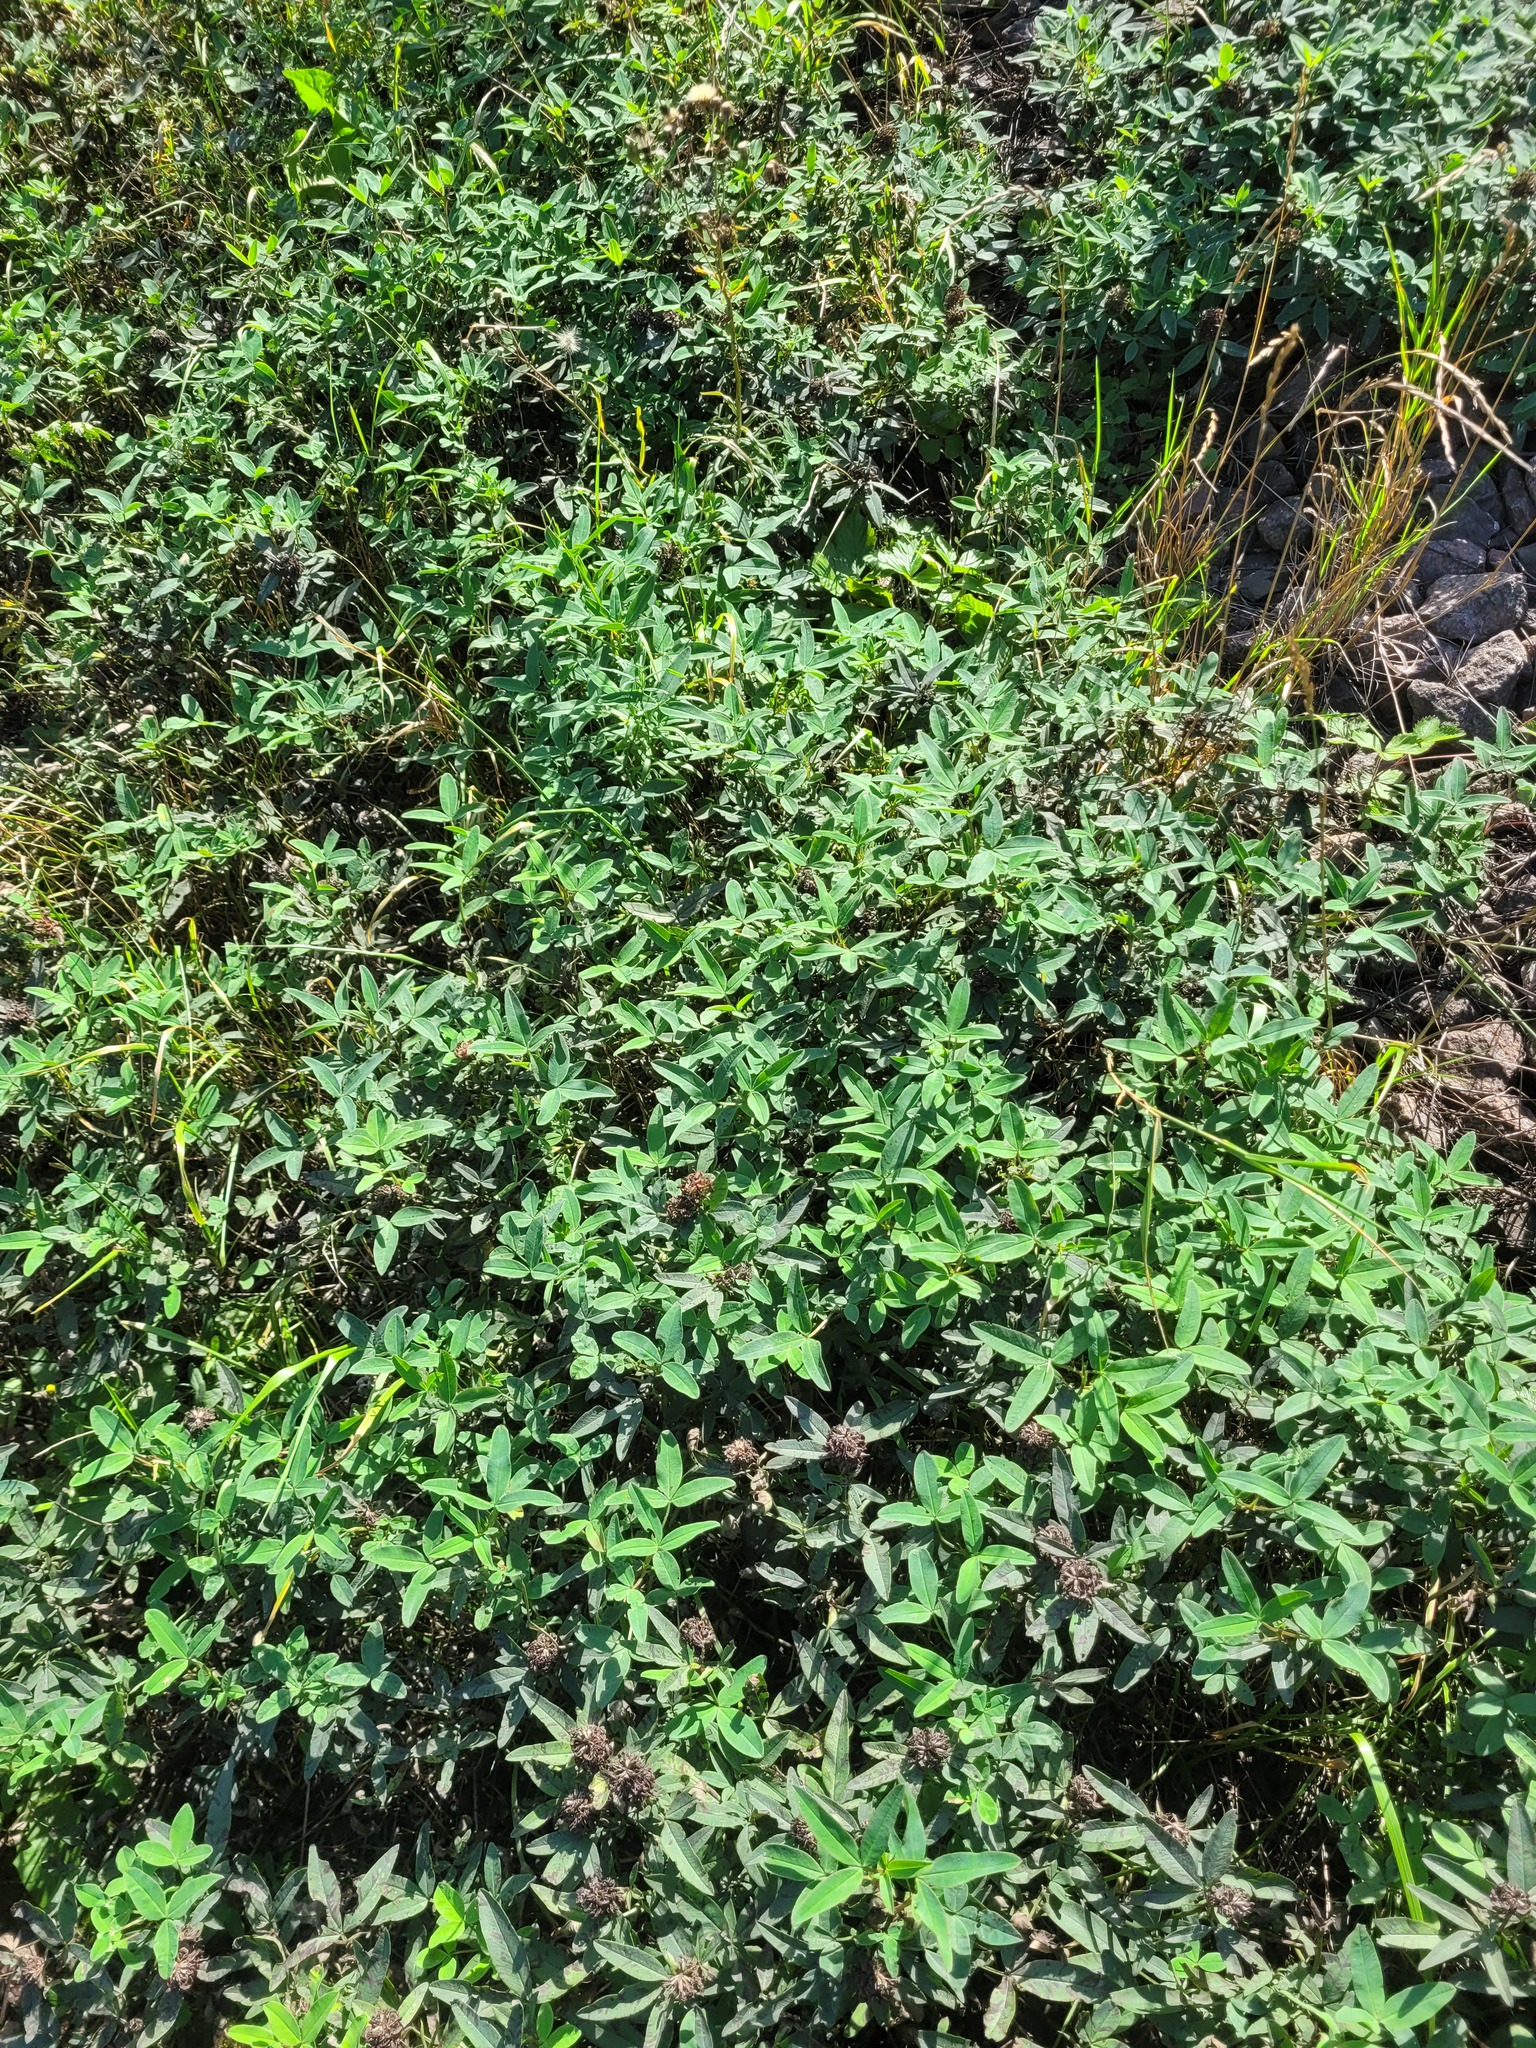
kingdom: Plantae
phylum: Tracheophyta
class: Magnoliopsida
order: Fabales
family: Fabaceae
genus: Trifolium
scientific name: Trifolium medium
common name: Zigzag clover
